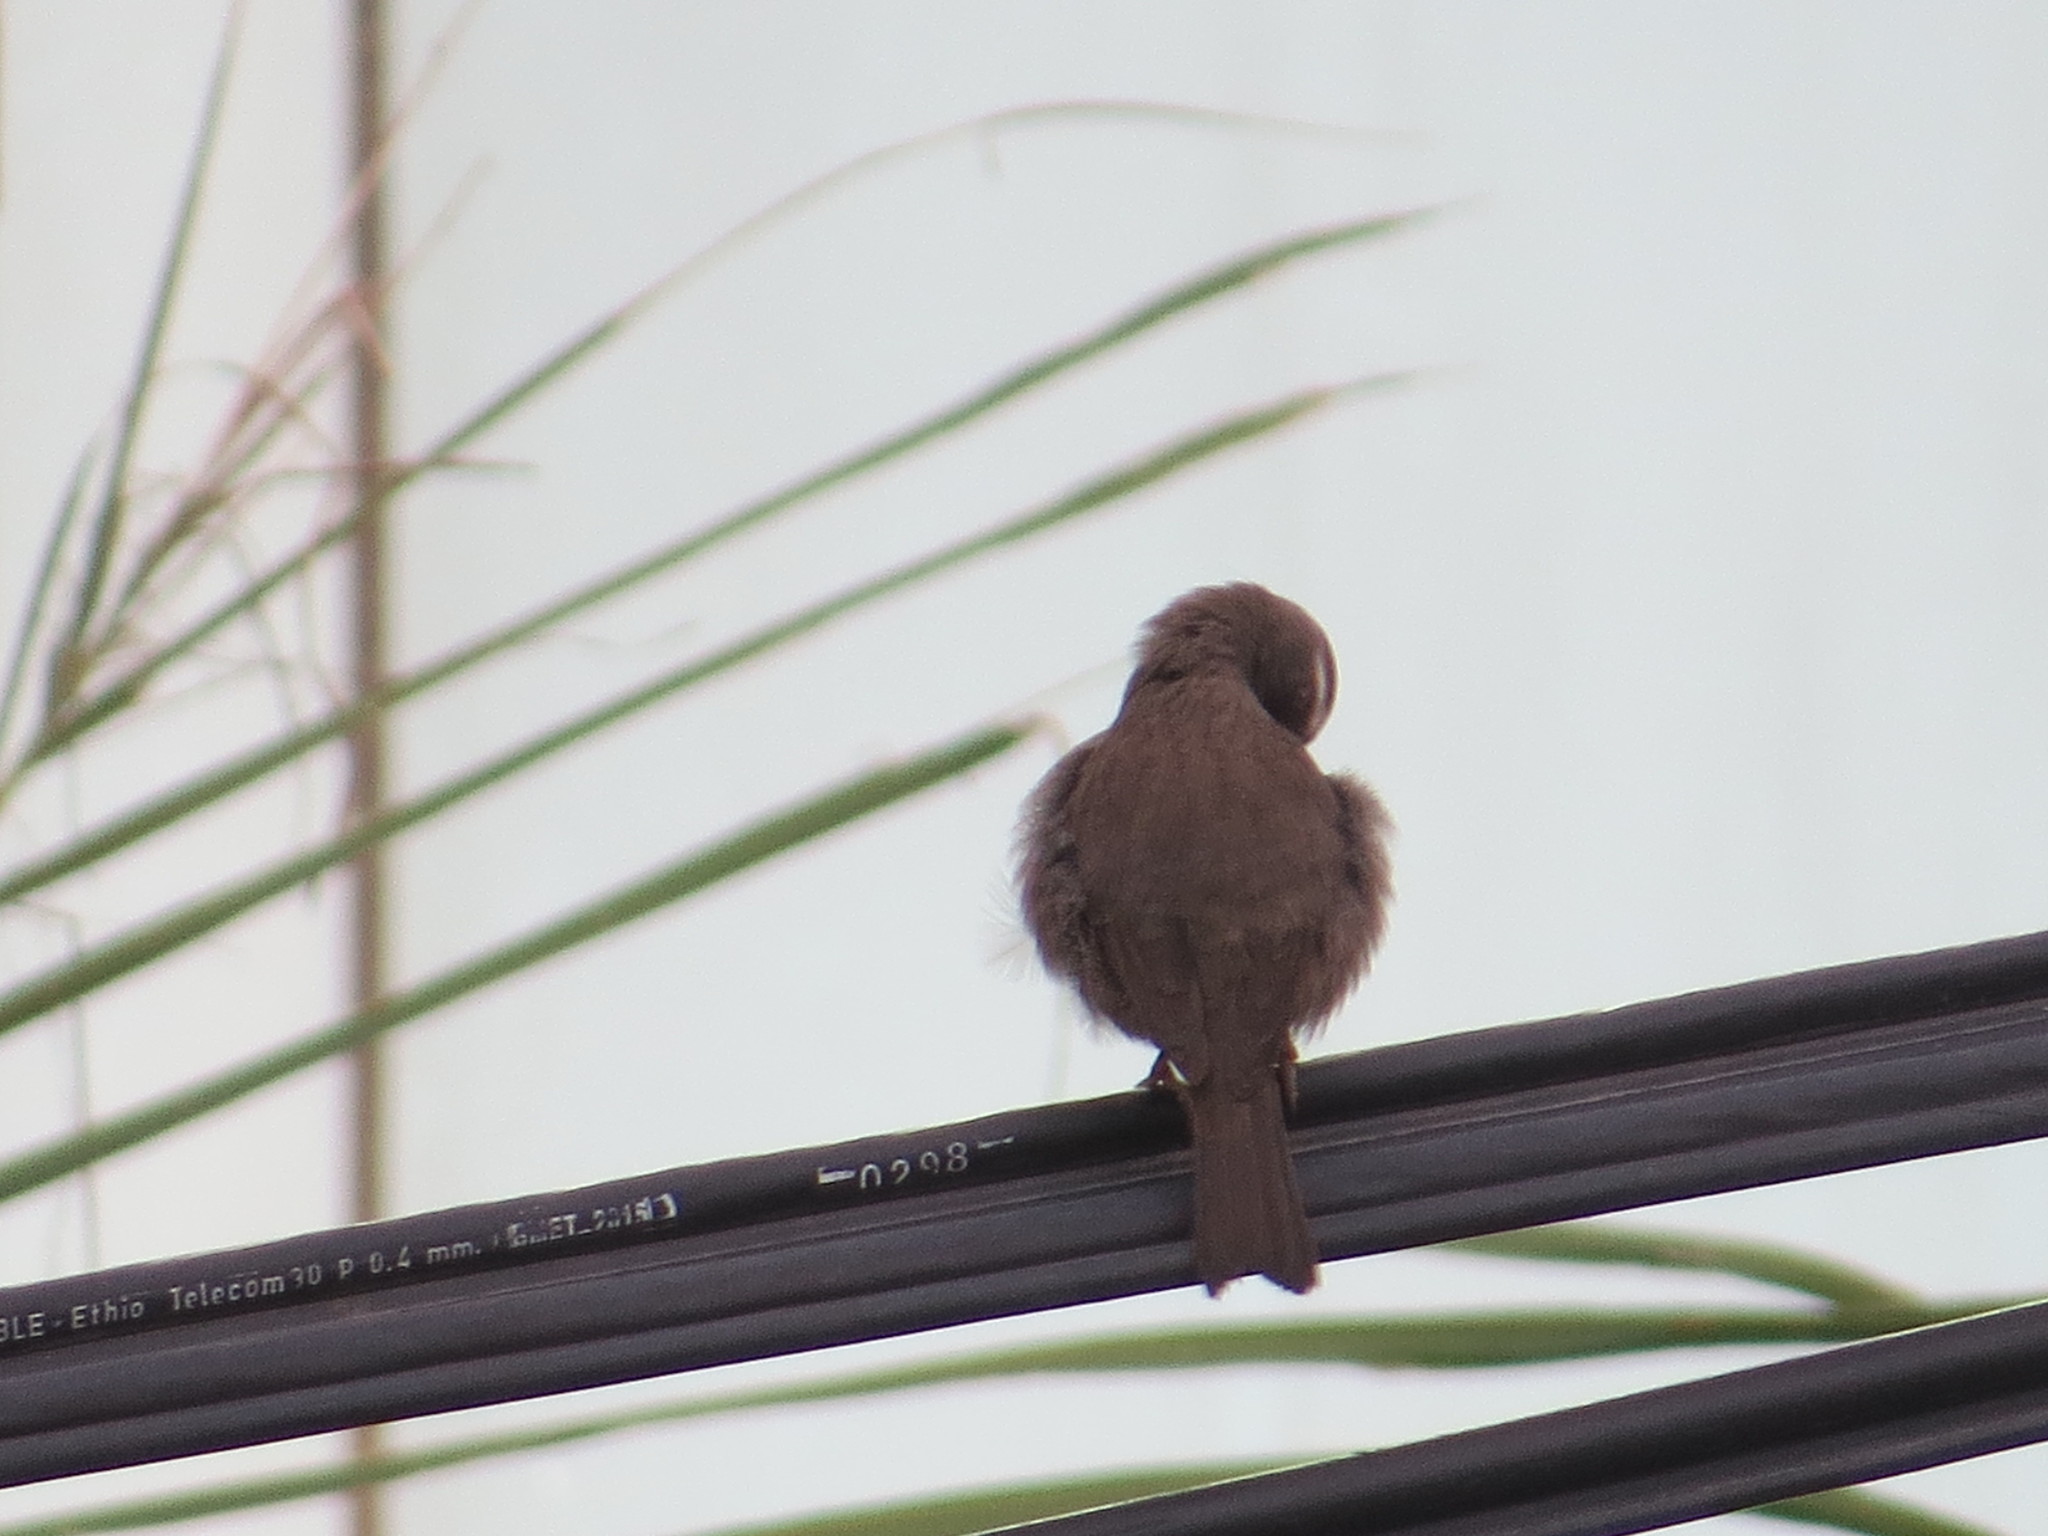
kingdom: Animalia
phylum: Chordata
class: Aves
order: Passeriformes
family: Fringillidae
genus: Crithagra
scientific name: Crithagra tristriata
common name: Brown-rumped seedeater
